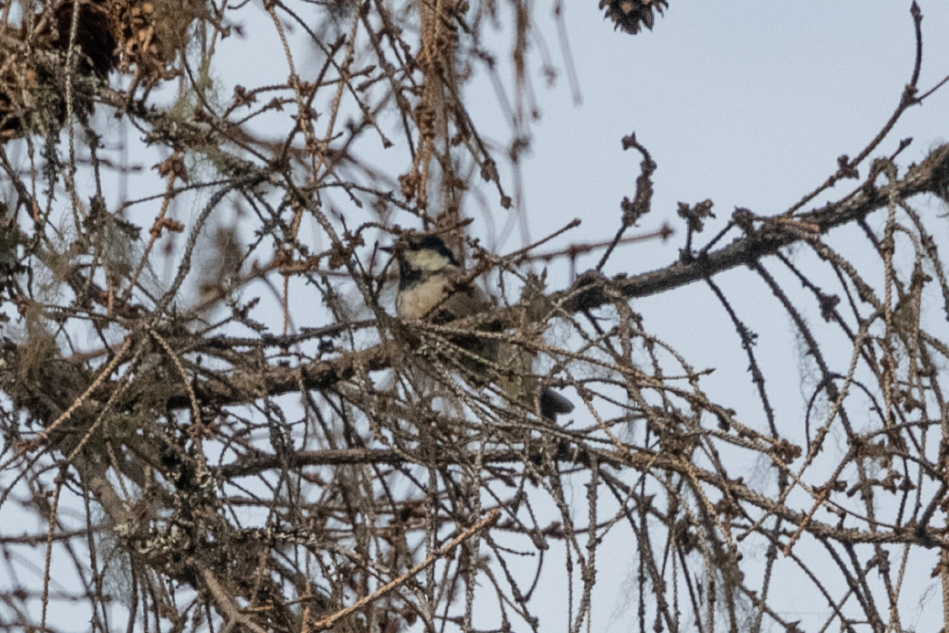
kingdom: Animalia
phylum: Chordata
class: Aves
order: Passeriformes
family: Paridae
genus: Periparus
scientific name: Periparus ater
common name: Coal tit
